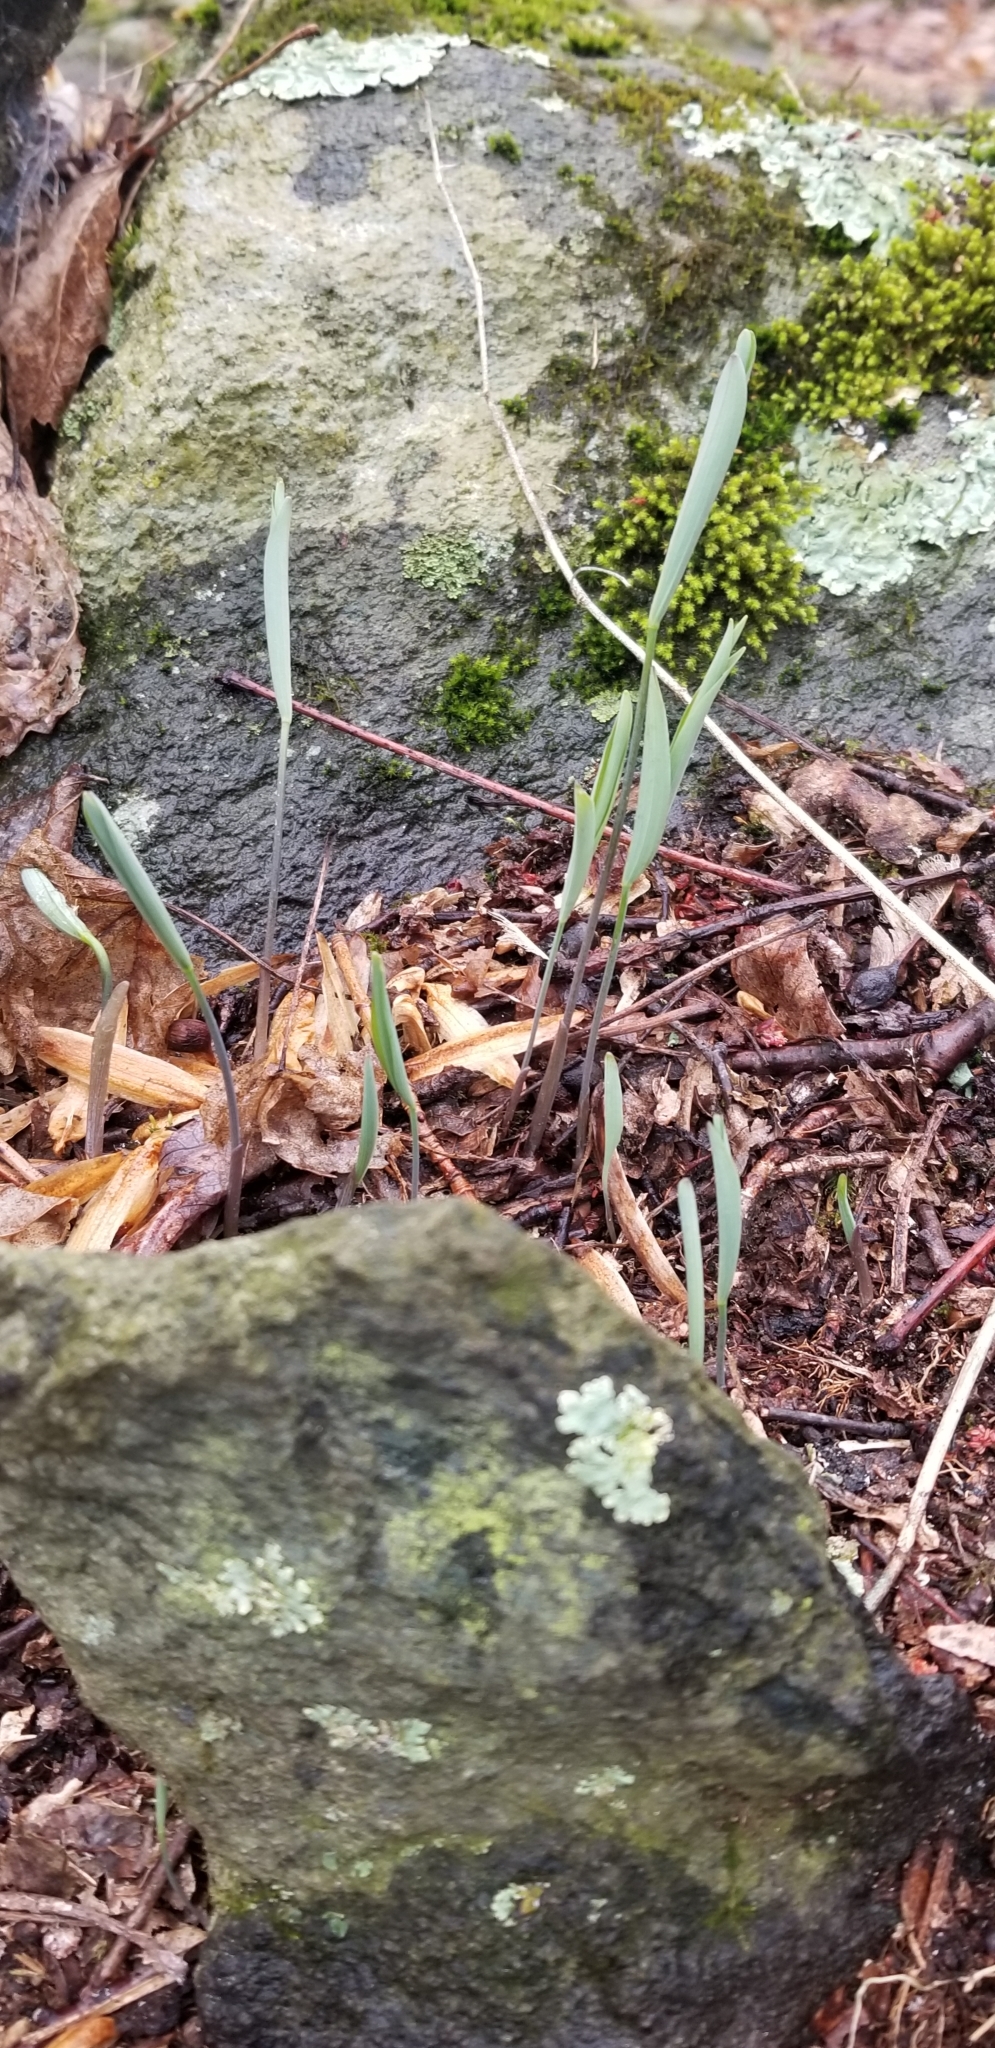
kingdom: Plantae
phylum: Tracheophyta
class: Liliopsida
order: Asparagales
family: Asparagaceae
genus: Polygonatum
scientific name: Polygonatum biflorum
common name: American solomon's-seal
